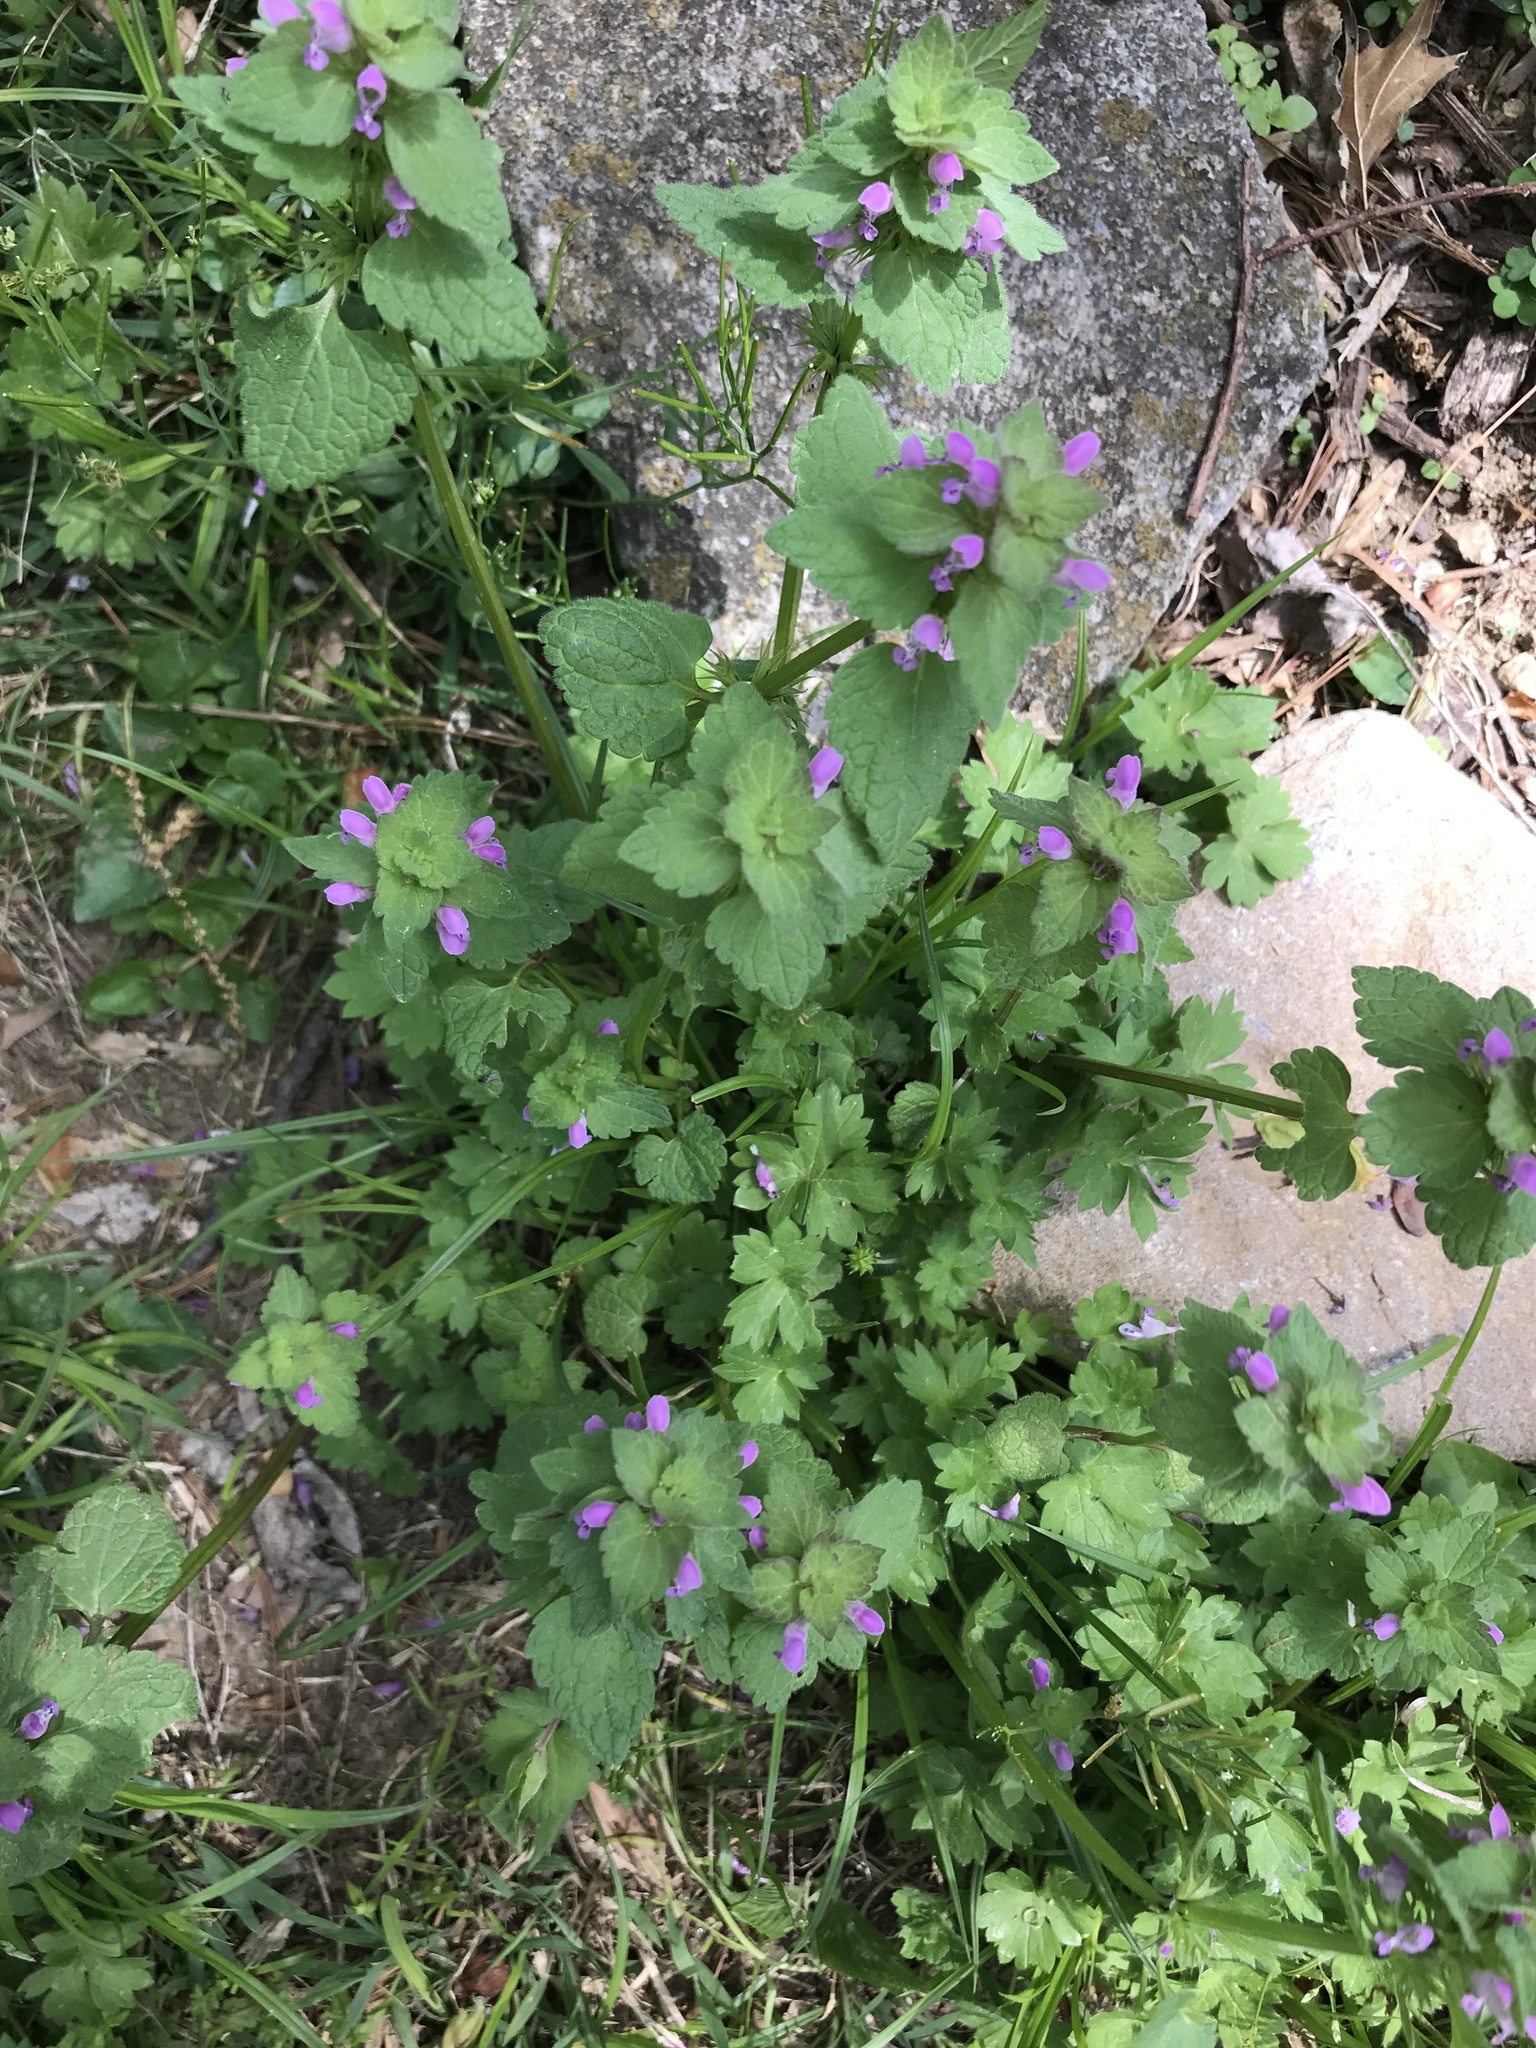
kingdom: Plantae
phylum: Tracheophyta
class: Magnoliopsida
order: Lamiales
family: Lamiaceae
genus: Lamium
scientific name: Lamium purpureum
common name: Red dead-nettle
